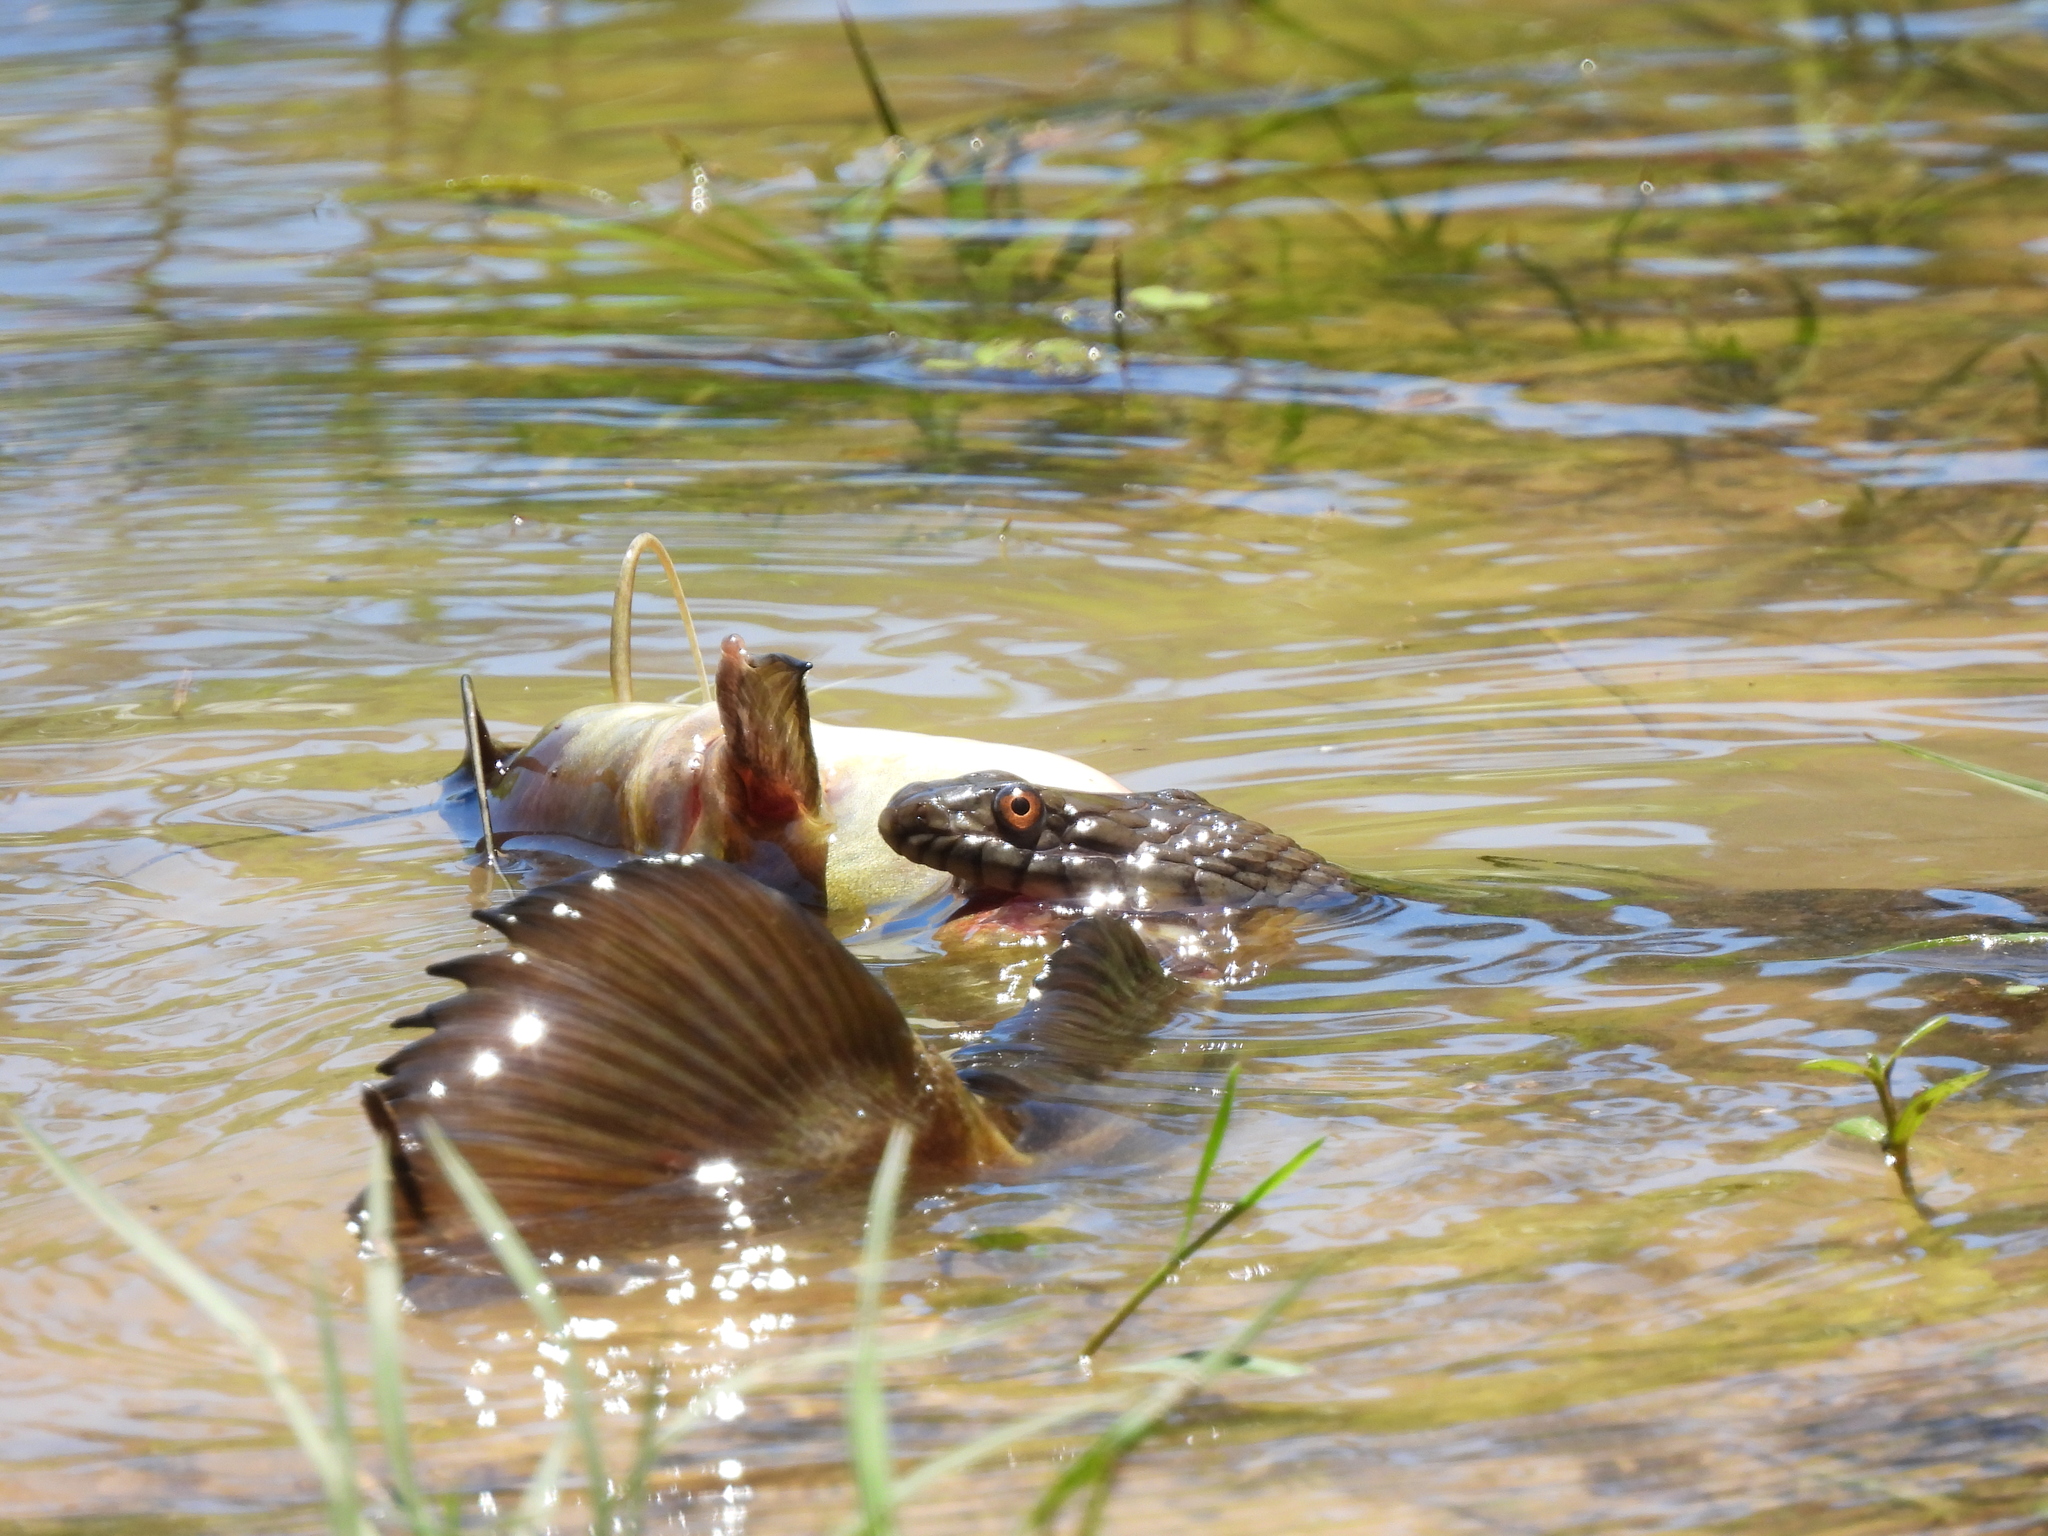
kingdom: Animalia
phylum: Chordata
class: Squamata
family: Colubridae
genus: Nerodia
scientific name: Nerodia rhombifer
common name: Diamondback water snake
